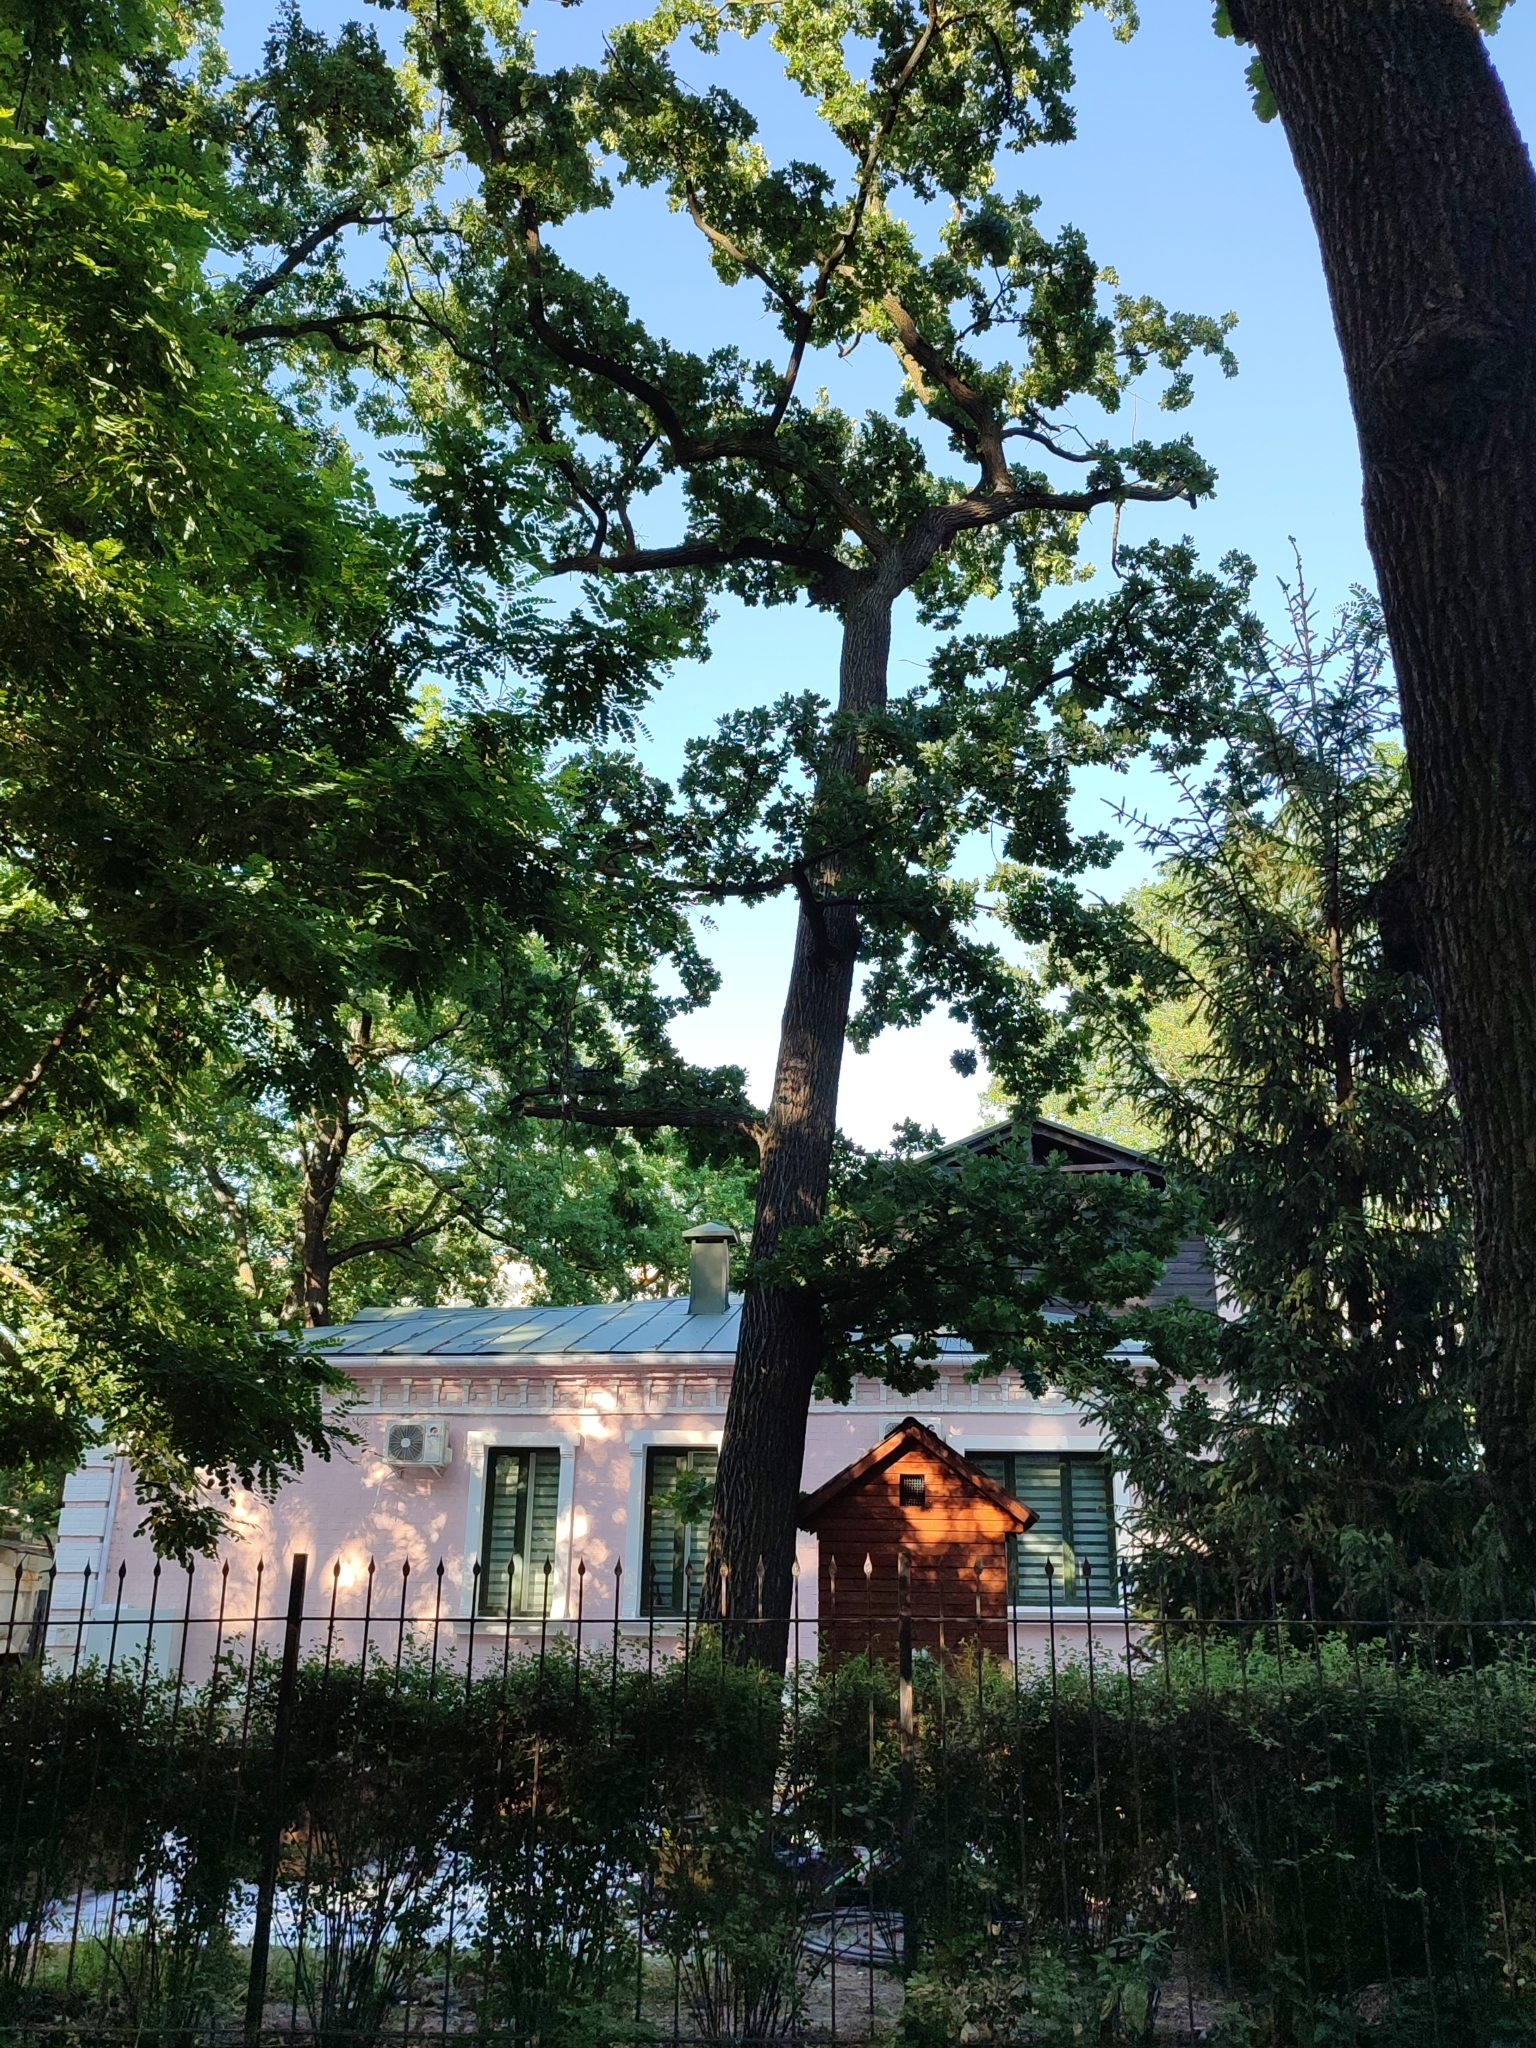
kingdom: Plantae
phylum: Tracheophyta
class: Magnoliopsida
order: Fagales
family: Fagaceae
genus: Quercus
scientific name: Quercus robur
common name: Pedunculate oak
